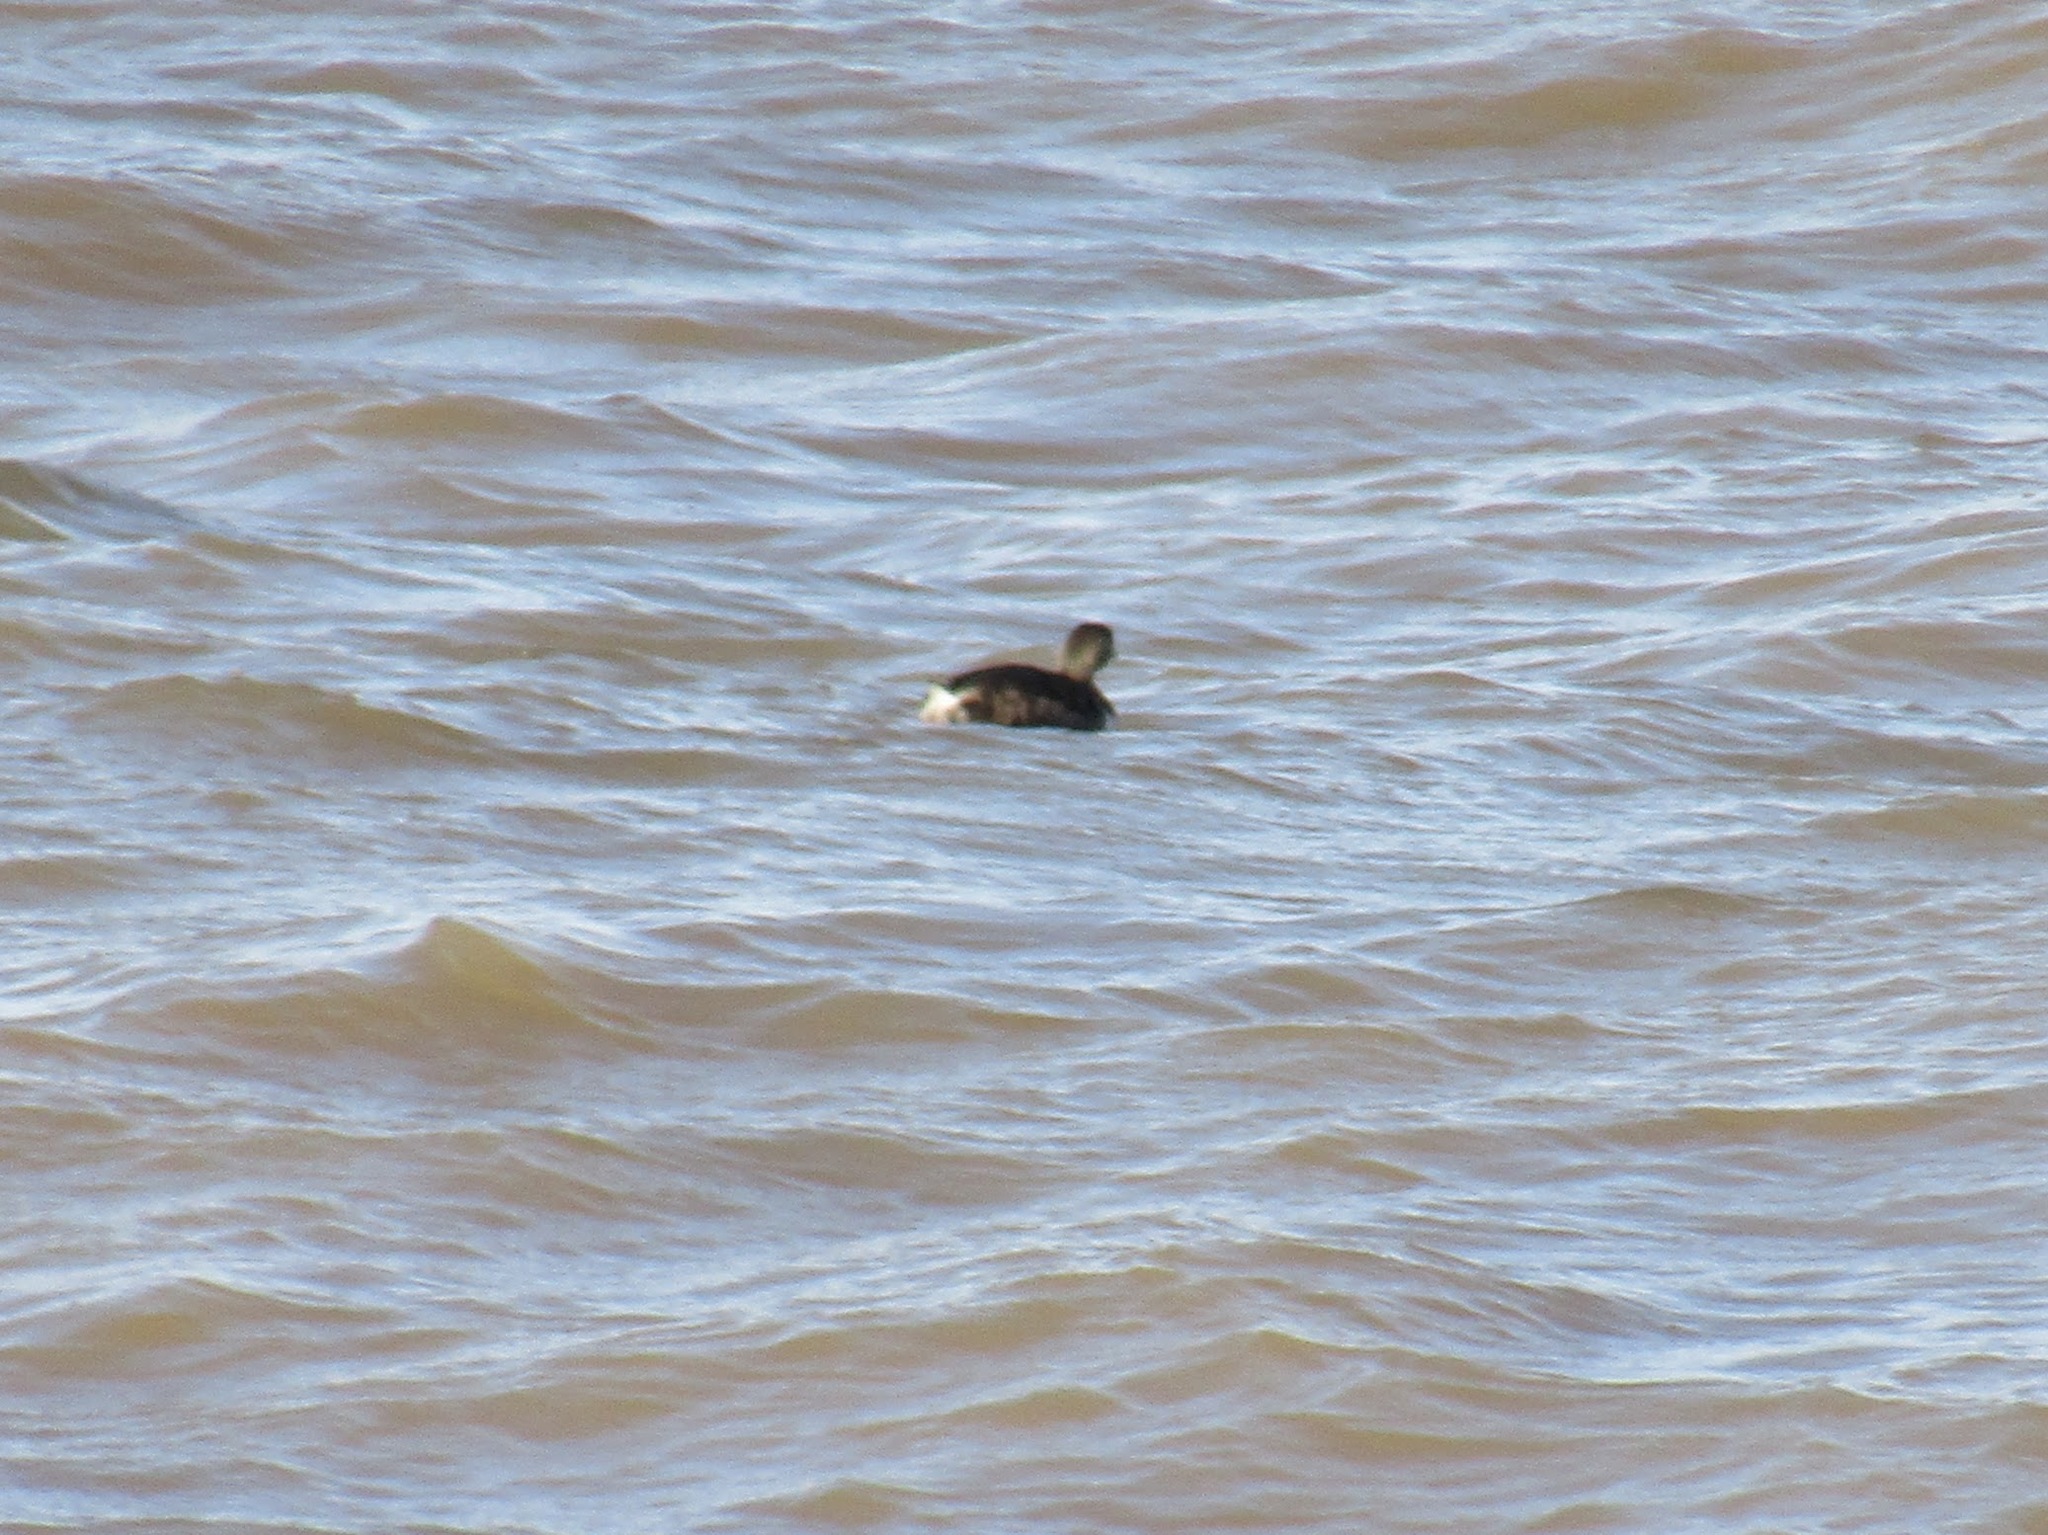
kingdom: Animalia
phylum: Chordata
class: Aves
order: Podicipediformes
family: Podicipedidae
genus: Podilymbus
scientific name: Podilymbus podiceps
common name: Pied-billed grebe
